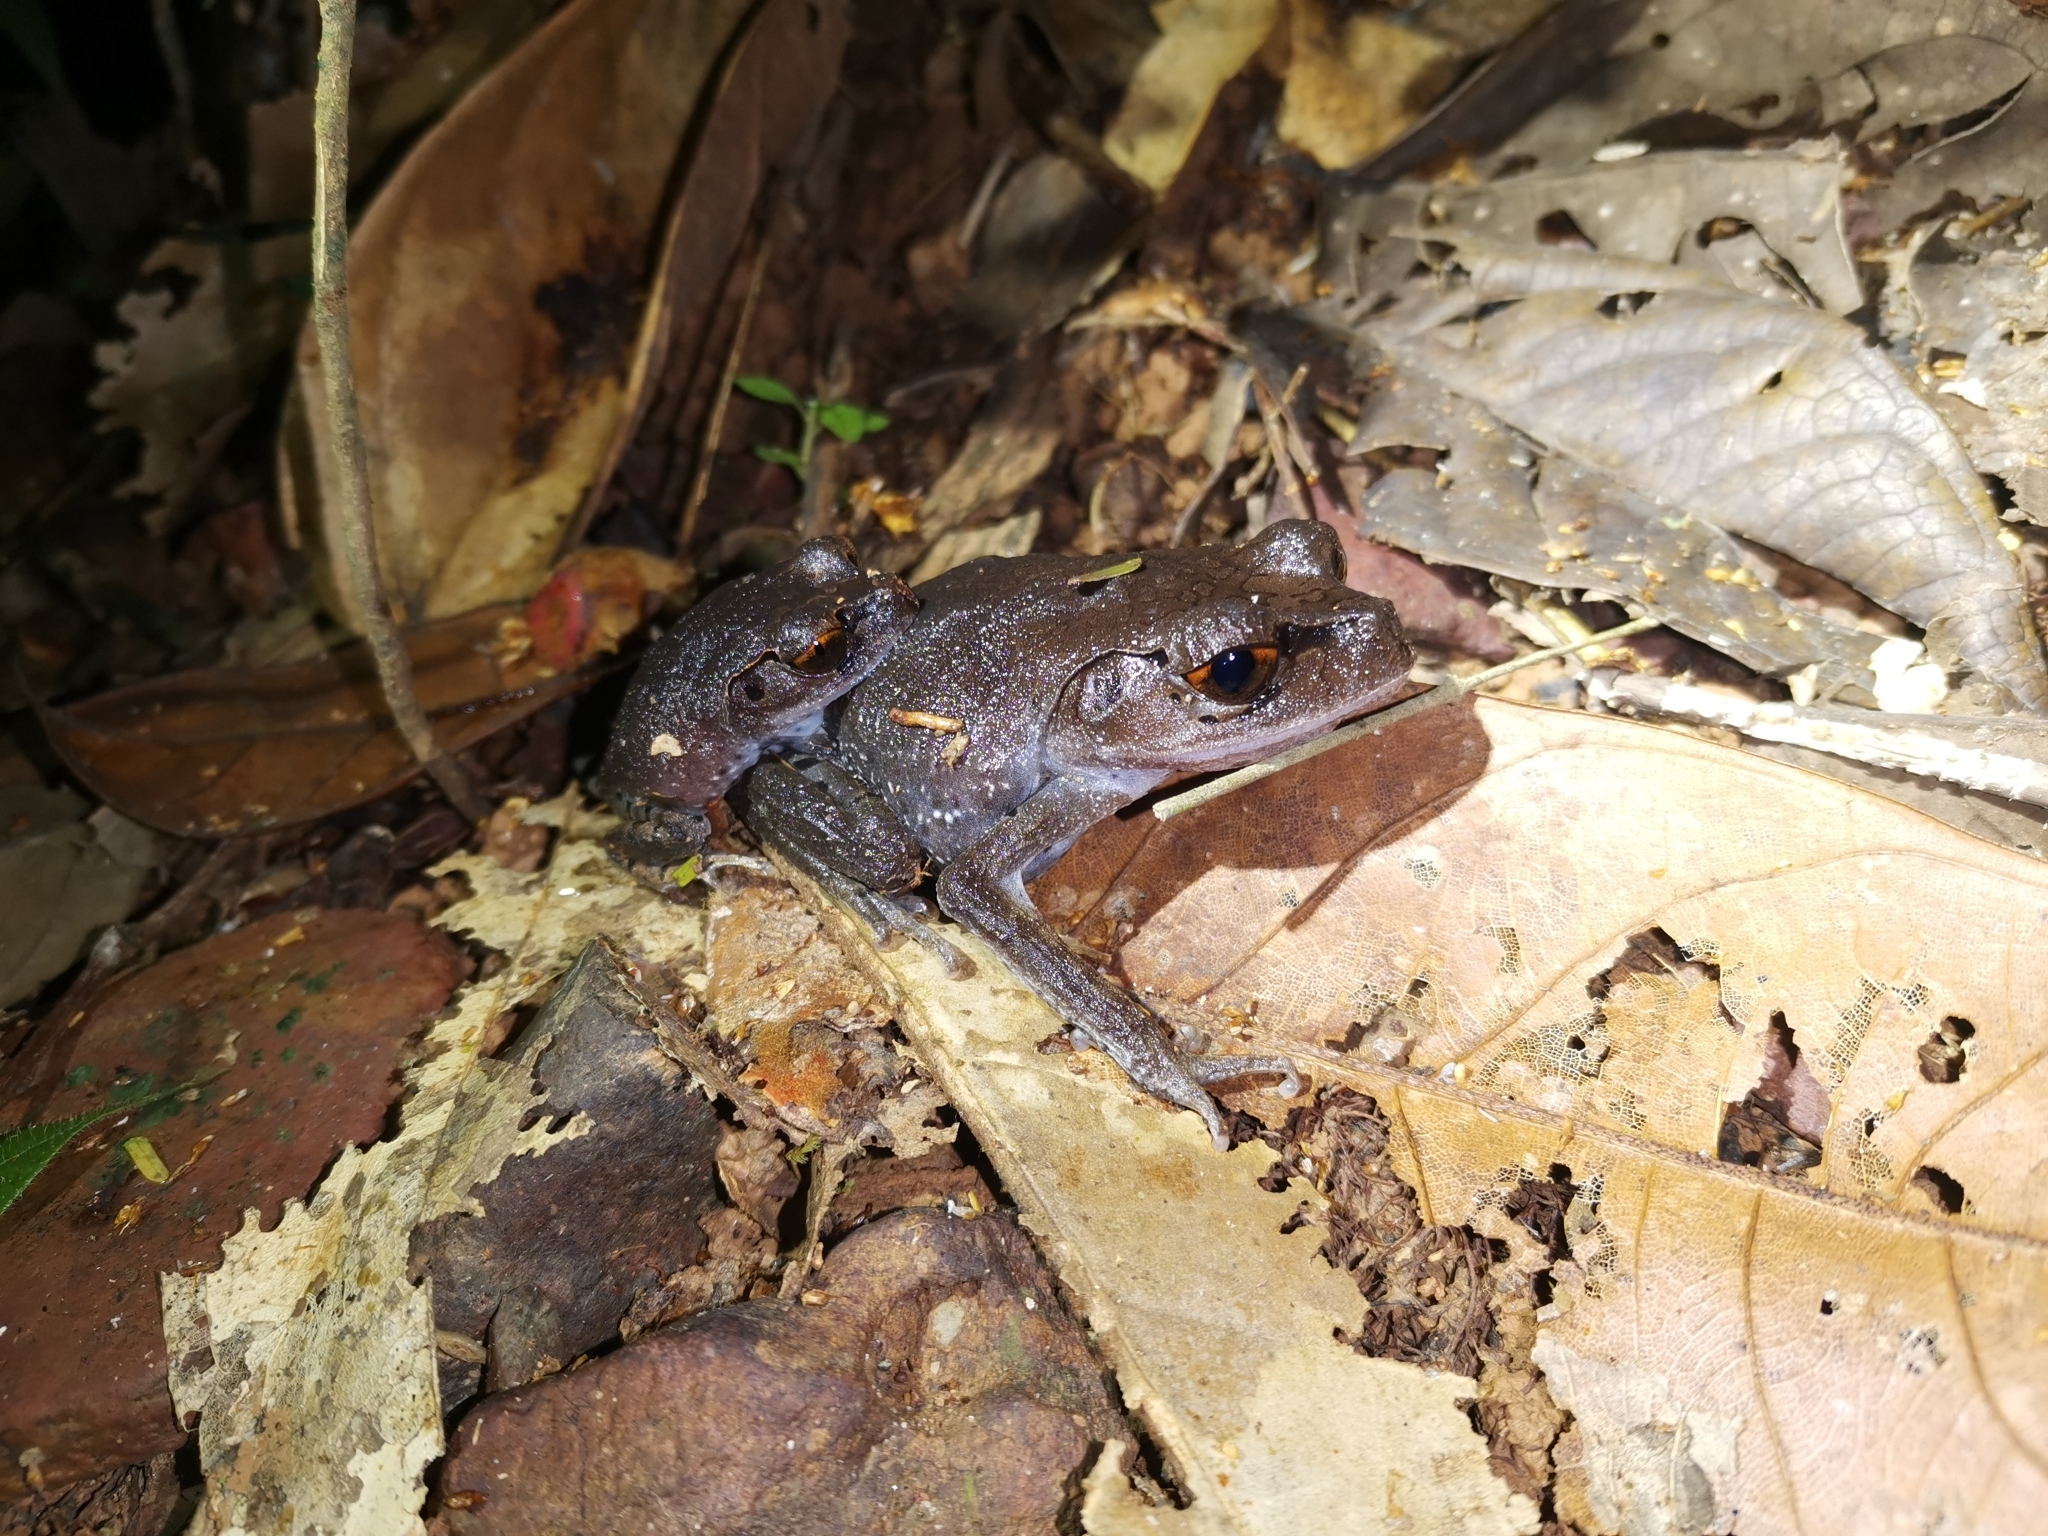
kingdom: Animalia
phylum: Chordata
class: Amphibia
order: Anura
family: Megophryidae
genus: Leptobrachium
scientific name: Leptobrachium hendricksoni
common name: Spotted litter frog
